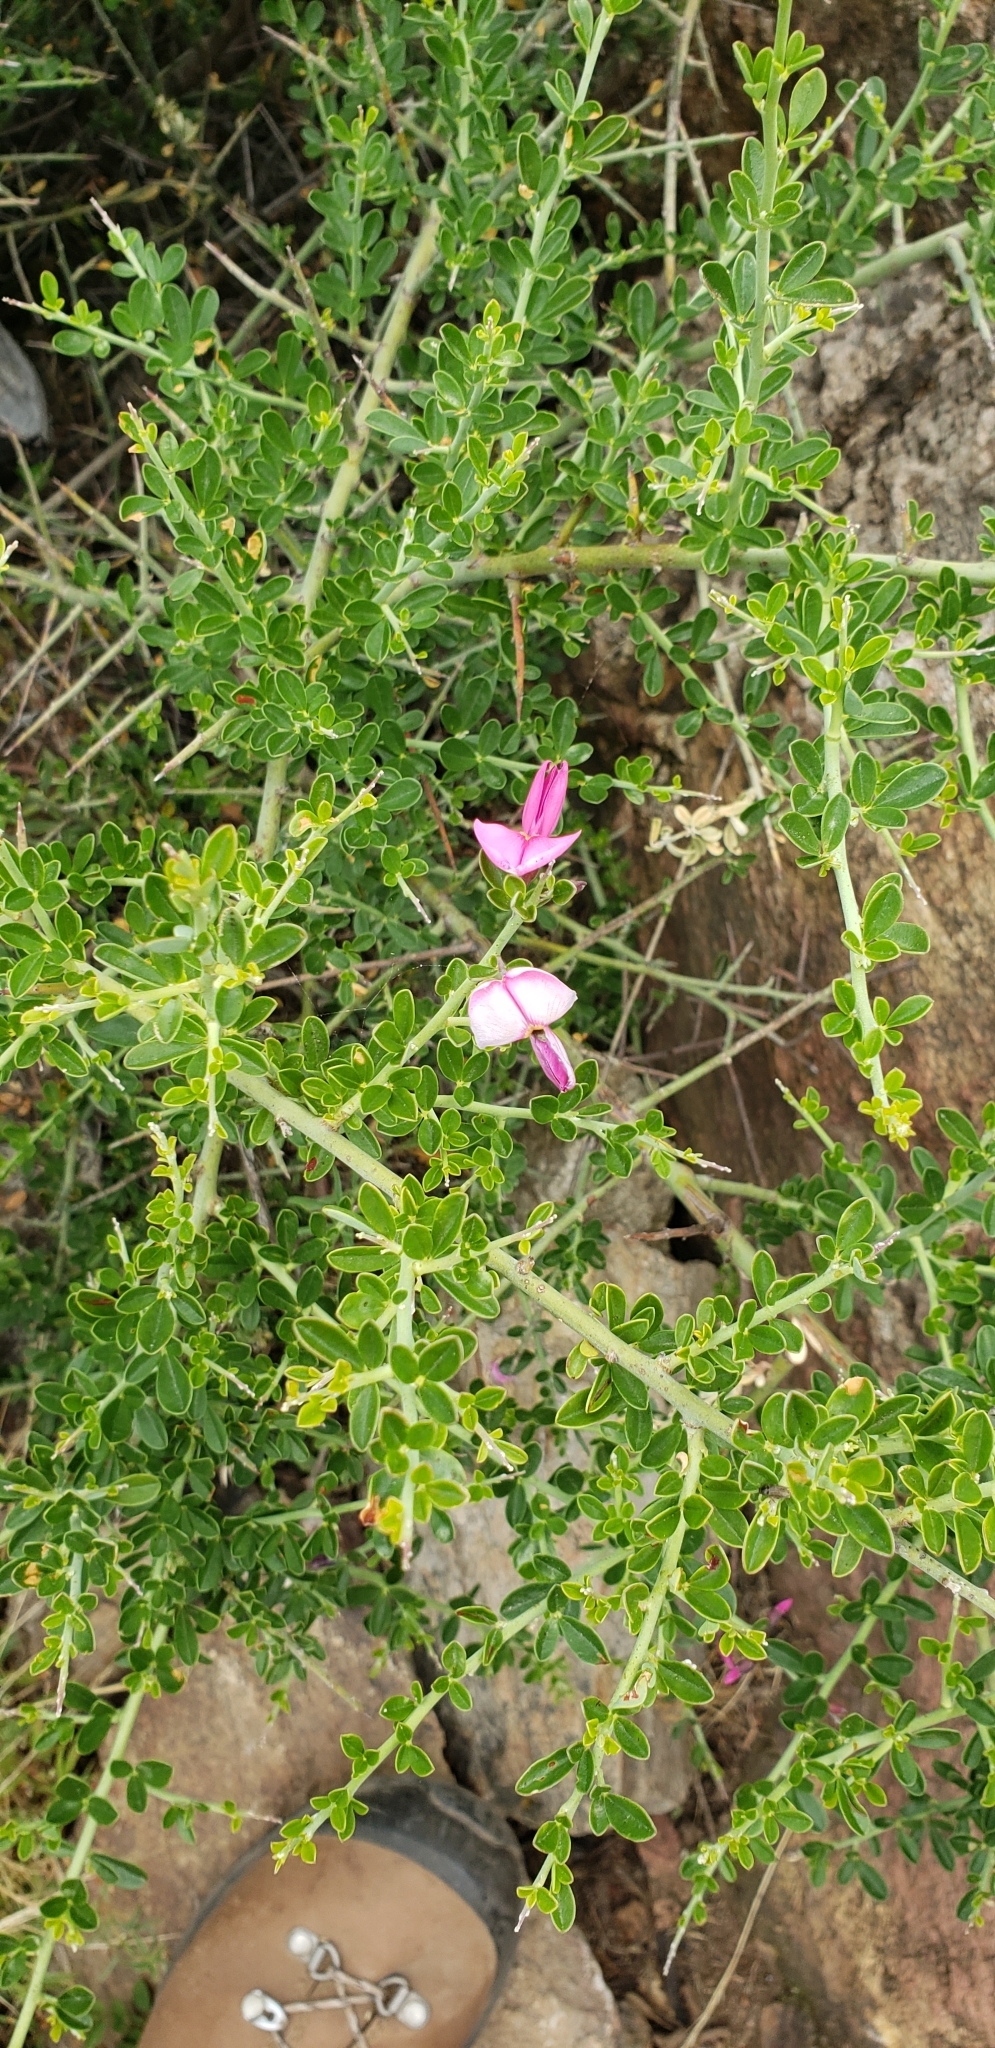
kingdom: Plantae
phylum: Tracheophyta
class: Magnoliopsida
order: Fabales
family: Fabaceae
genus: Pickeringia
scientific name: Pickeringia montana
